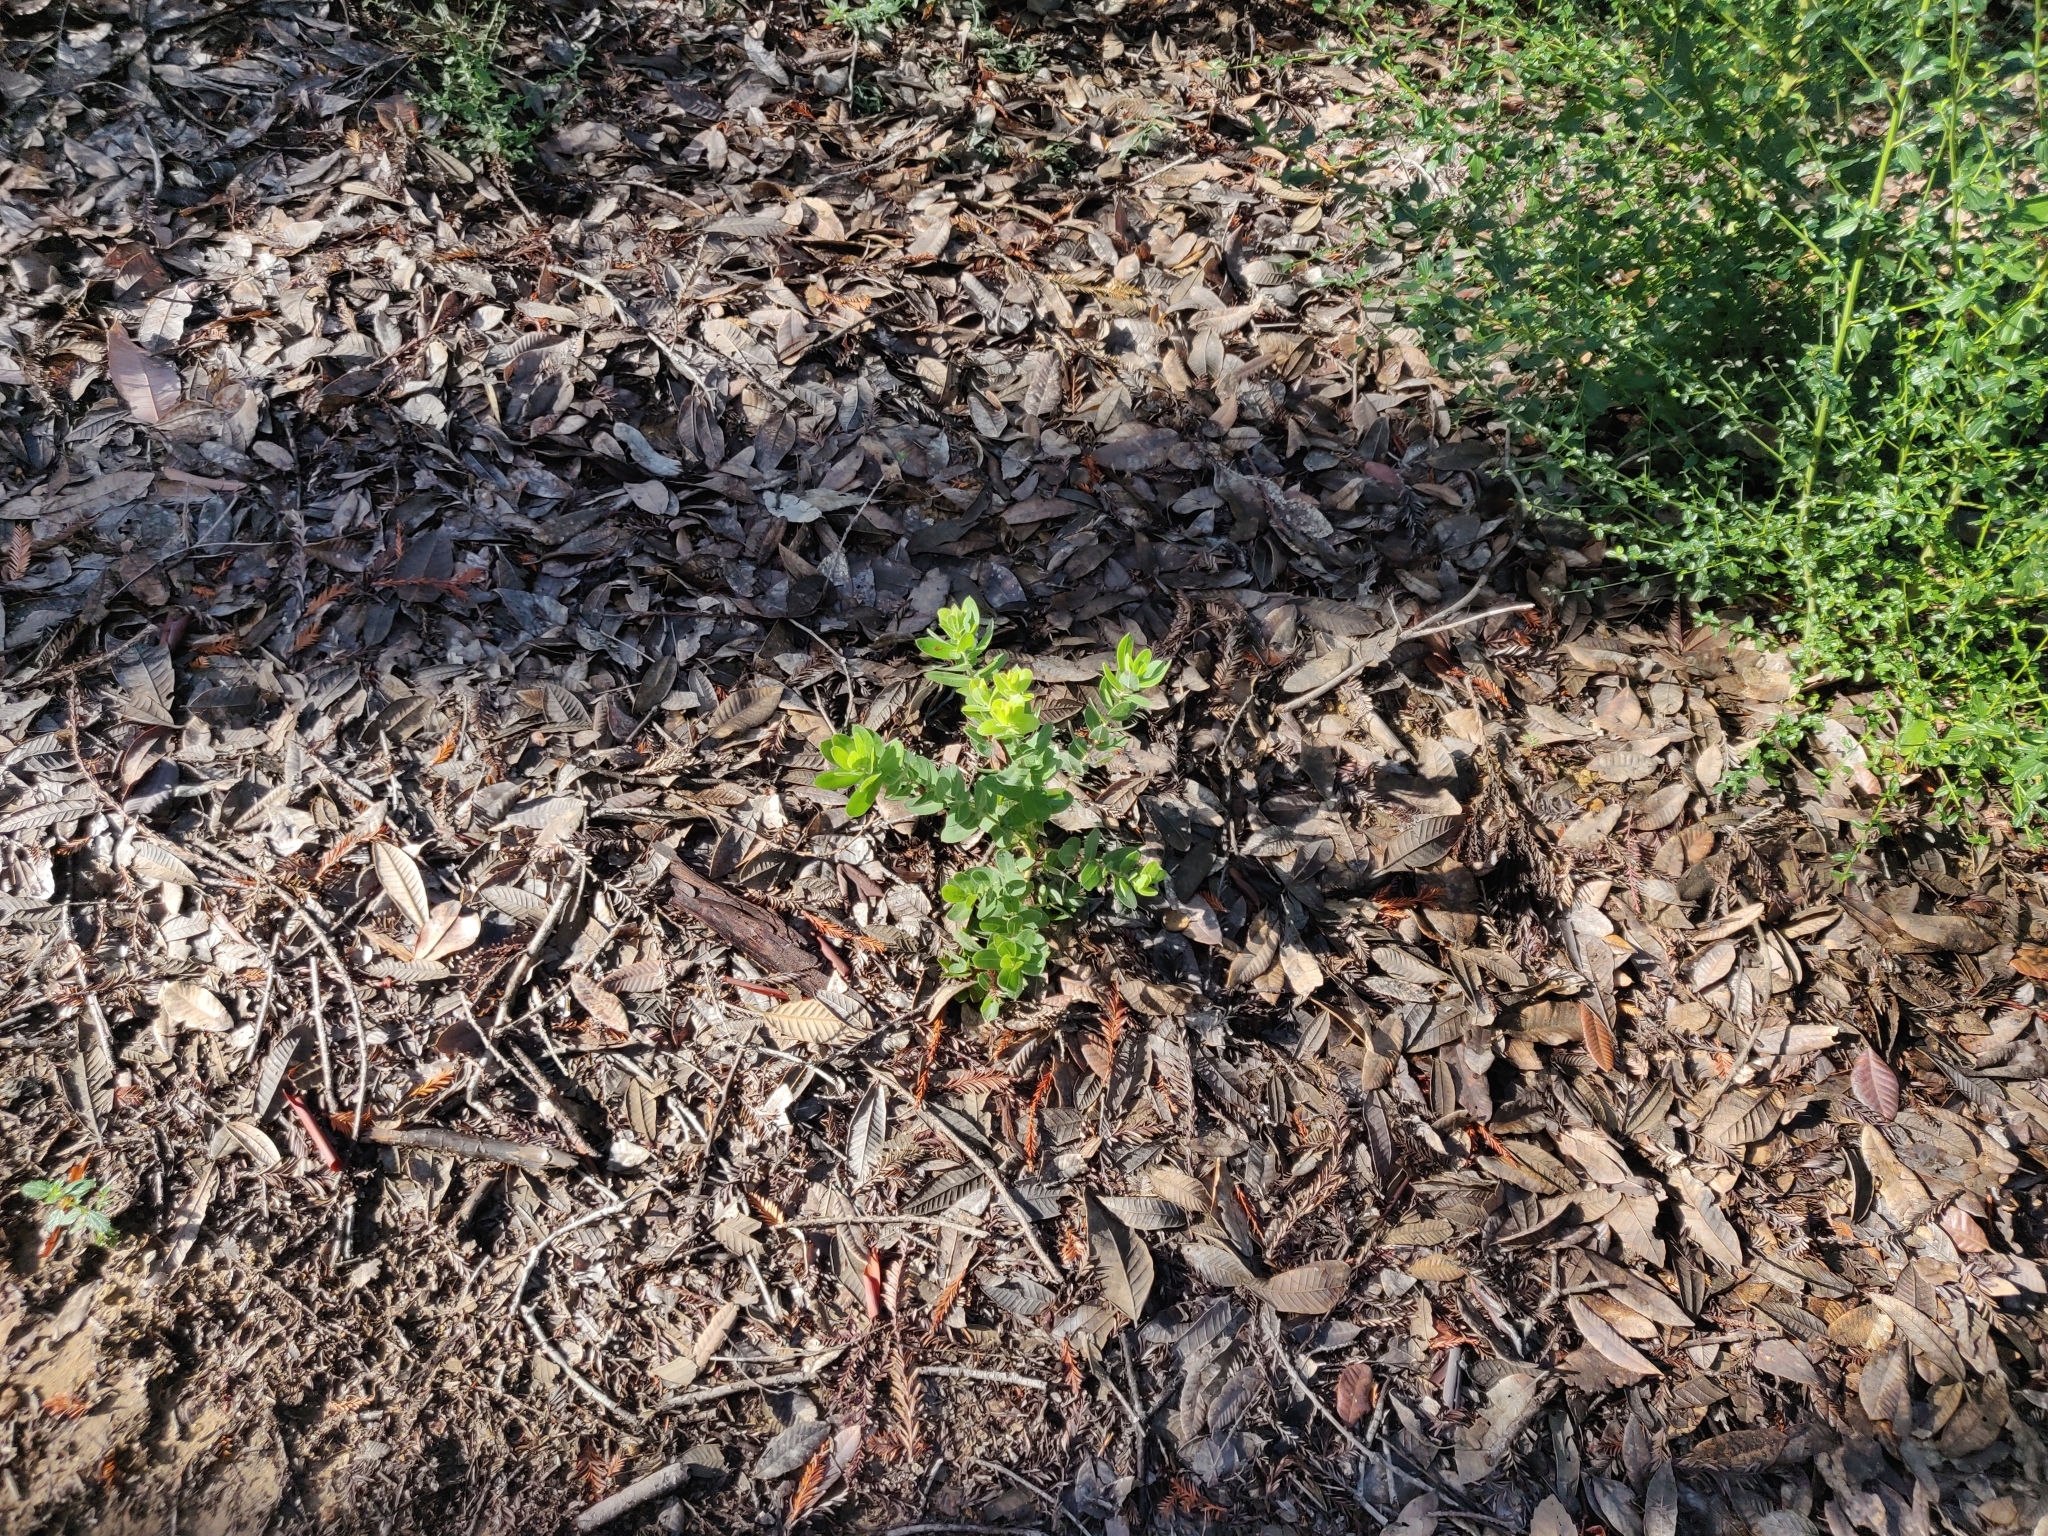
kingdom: Plantae
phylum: Tracheophyta
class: Magnoliopsida
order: Ericales
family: Ericaceae
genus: Arctostaphylos
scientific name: Arctostaphylos andersonii
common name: Santa cruz manzanita
